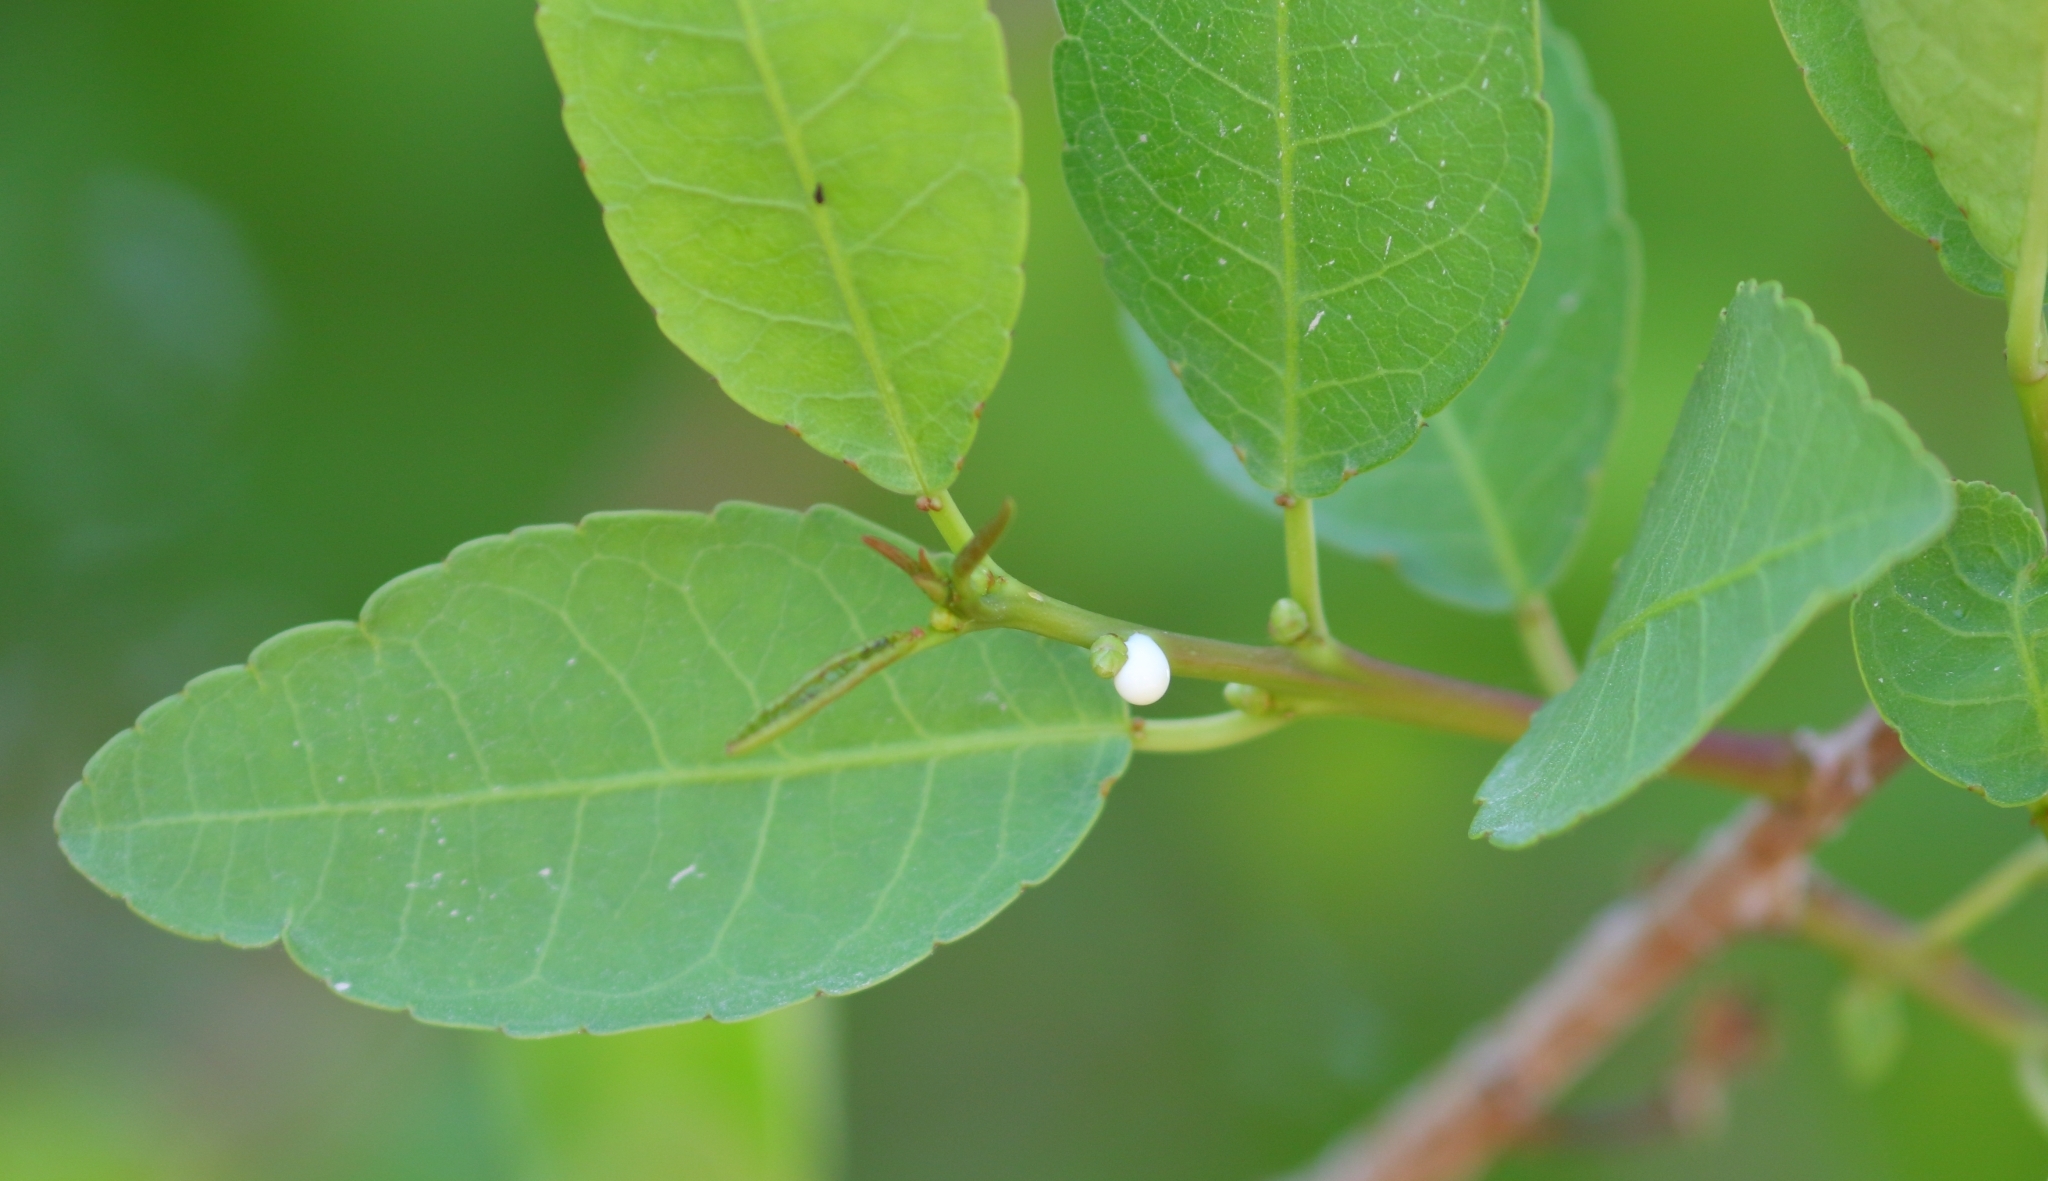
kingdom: Plantae
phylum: Tracheophyta
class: Magnoliopsida
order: Malpighiales
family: Euphorbiaceae
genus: Spirostachys
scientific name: Spirostachys africana
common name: Tamboti
